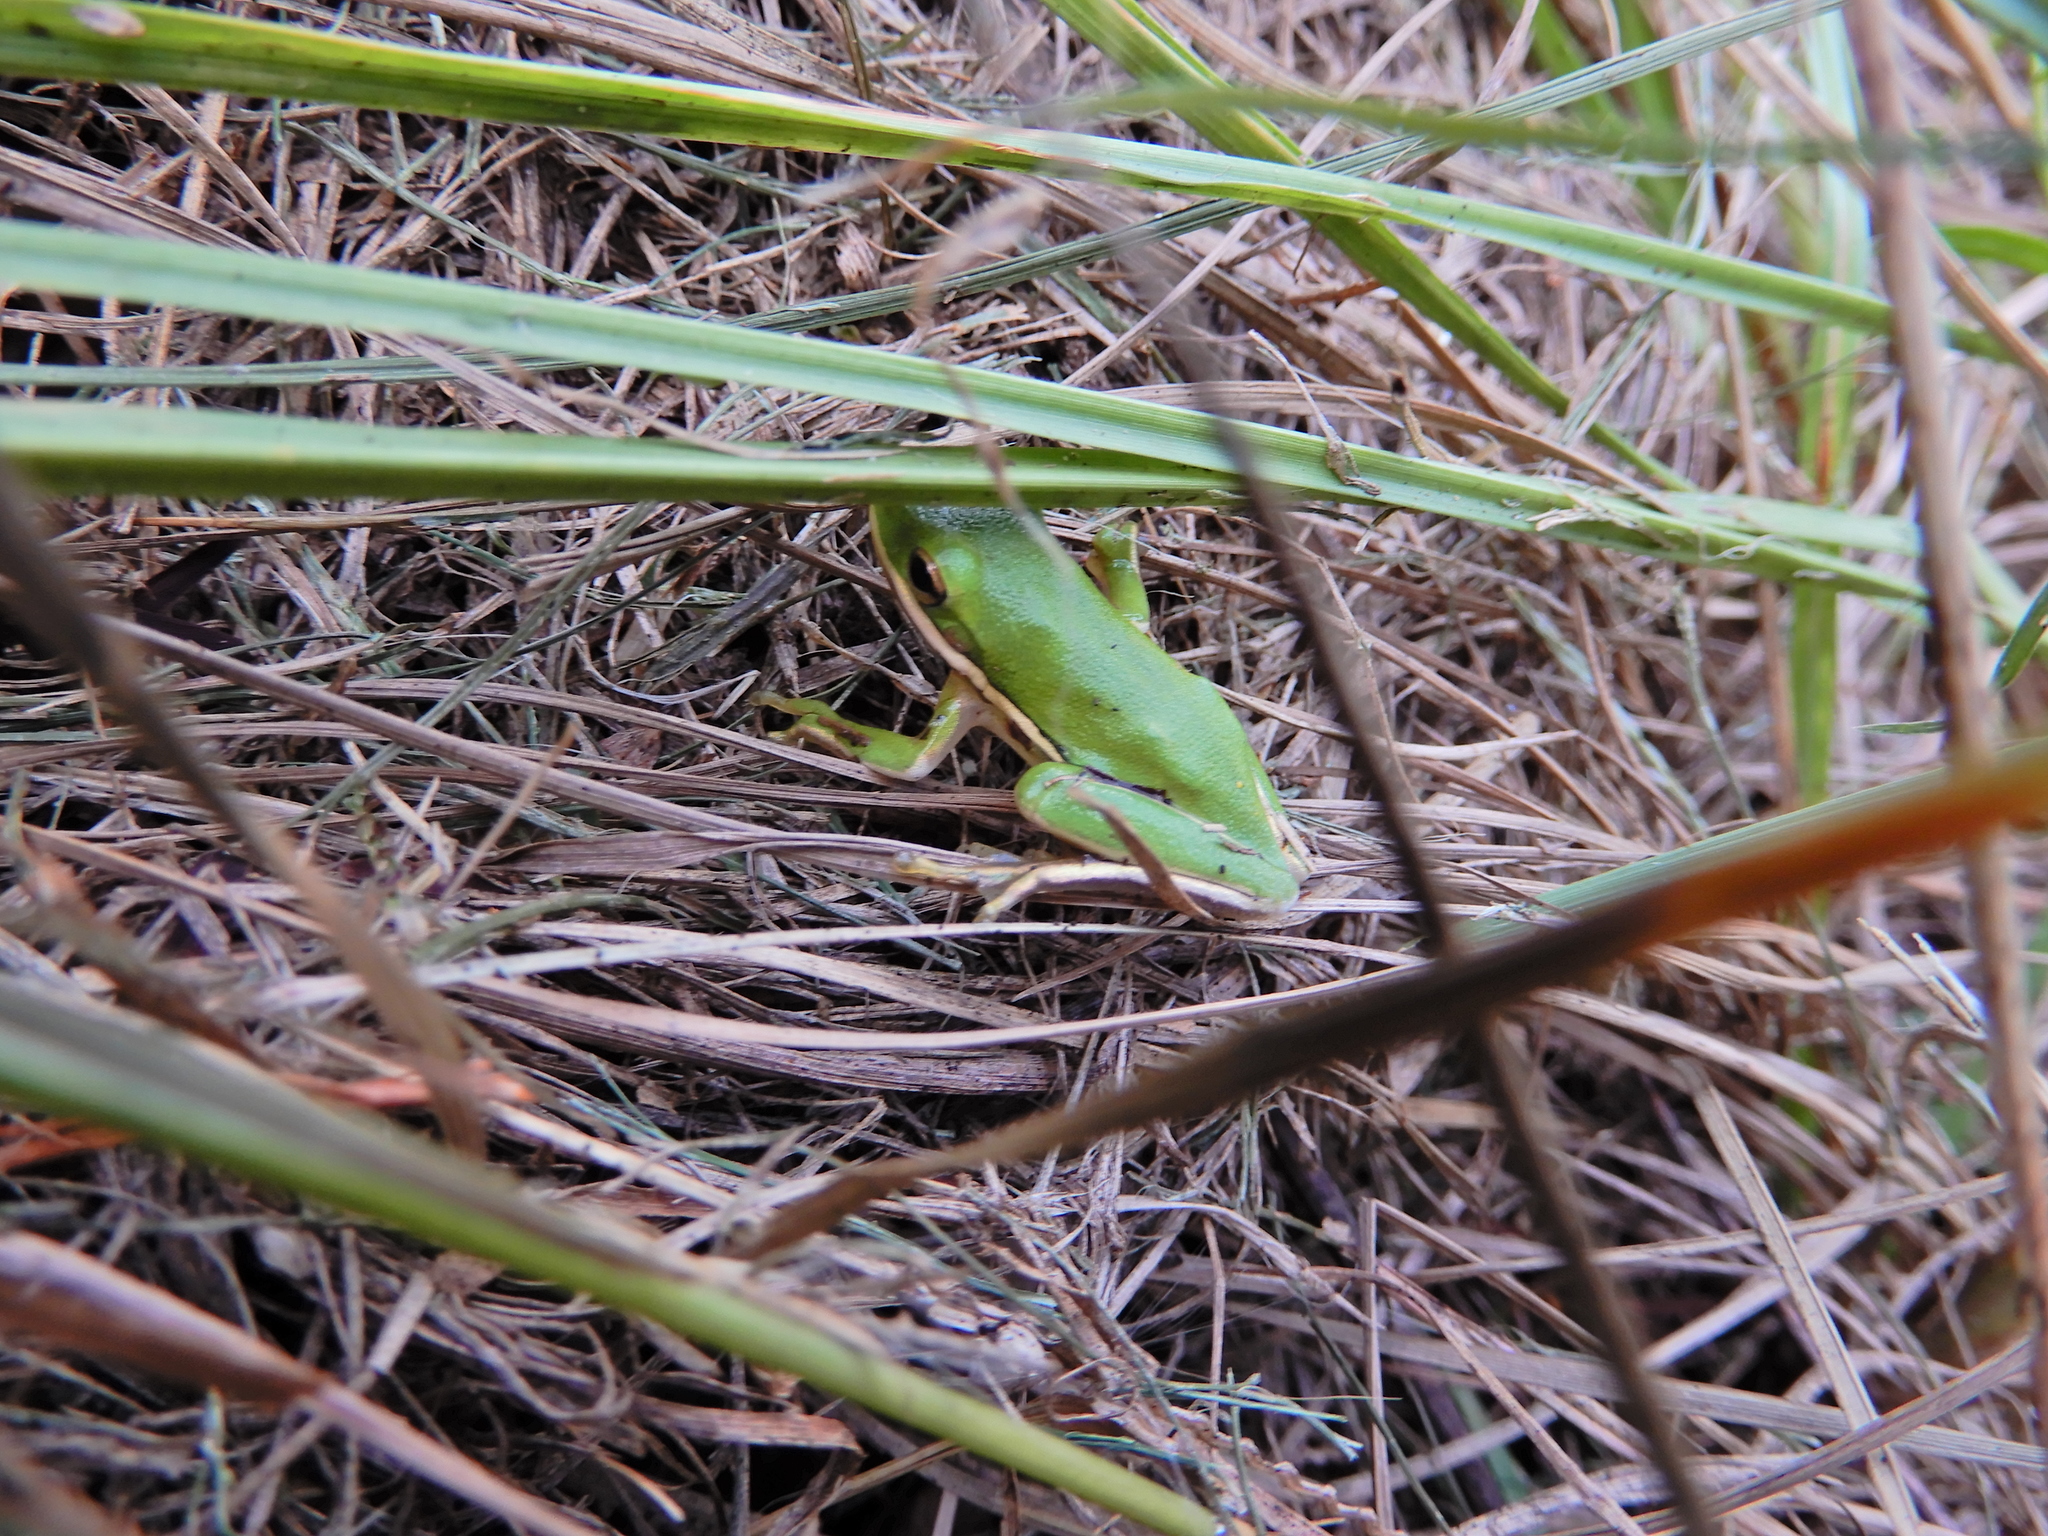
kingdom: Animalia
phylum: Chordata
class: Amphibia
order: Anura
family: Hylidae
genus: Dryophytes
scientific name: Dryophytes cinereus
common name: Green treefrog
